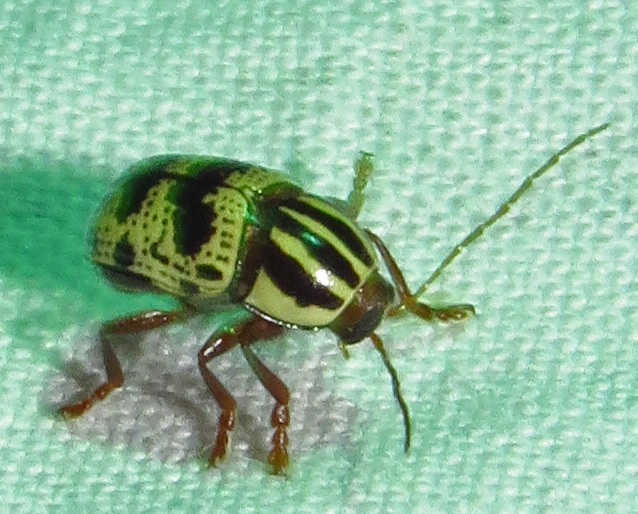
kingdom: Animalia
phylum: Arthropoda
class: Insecta
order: Coleoptera
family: Chrysomelidae
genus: Cryptocephalus
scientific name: Cryptocephalus leucomelas
